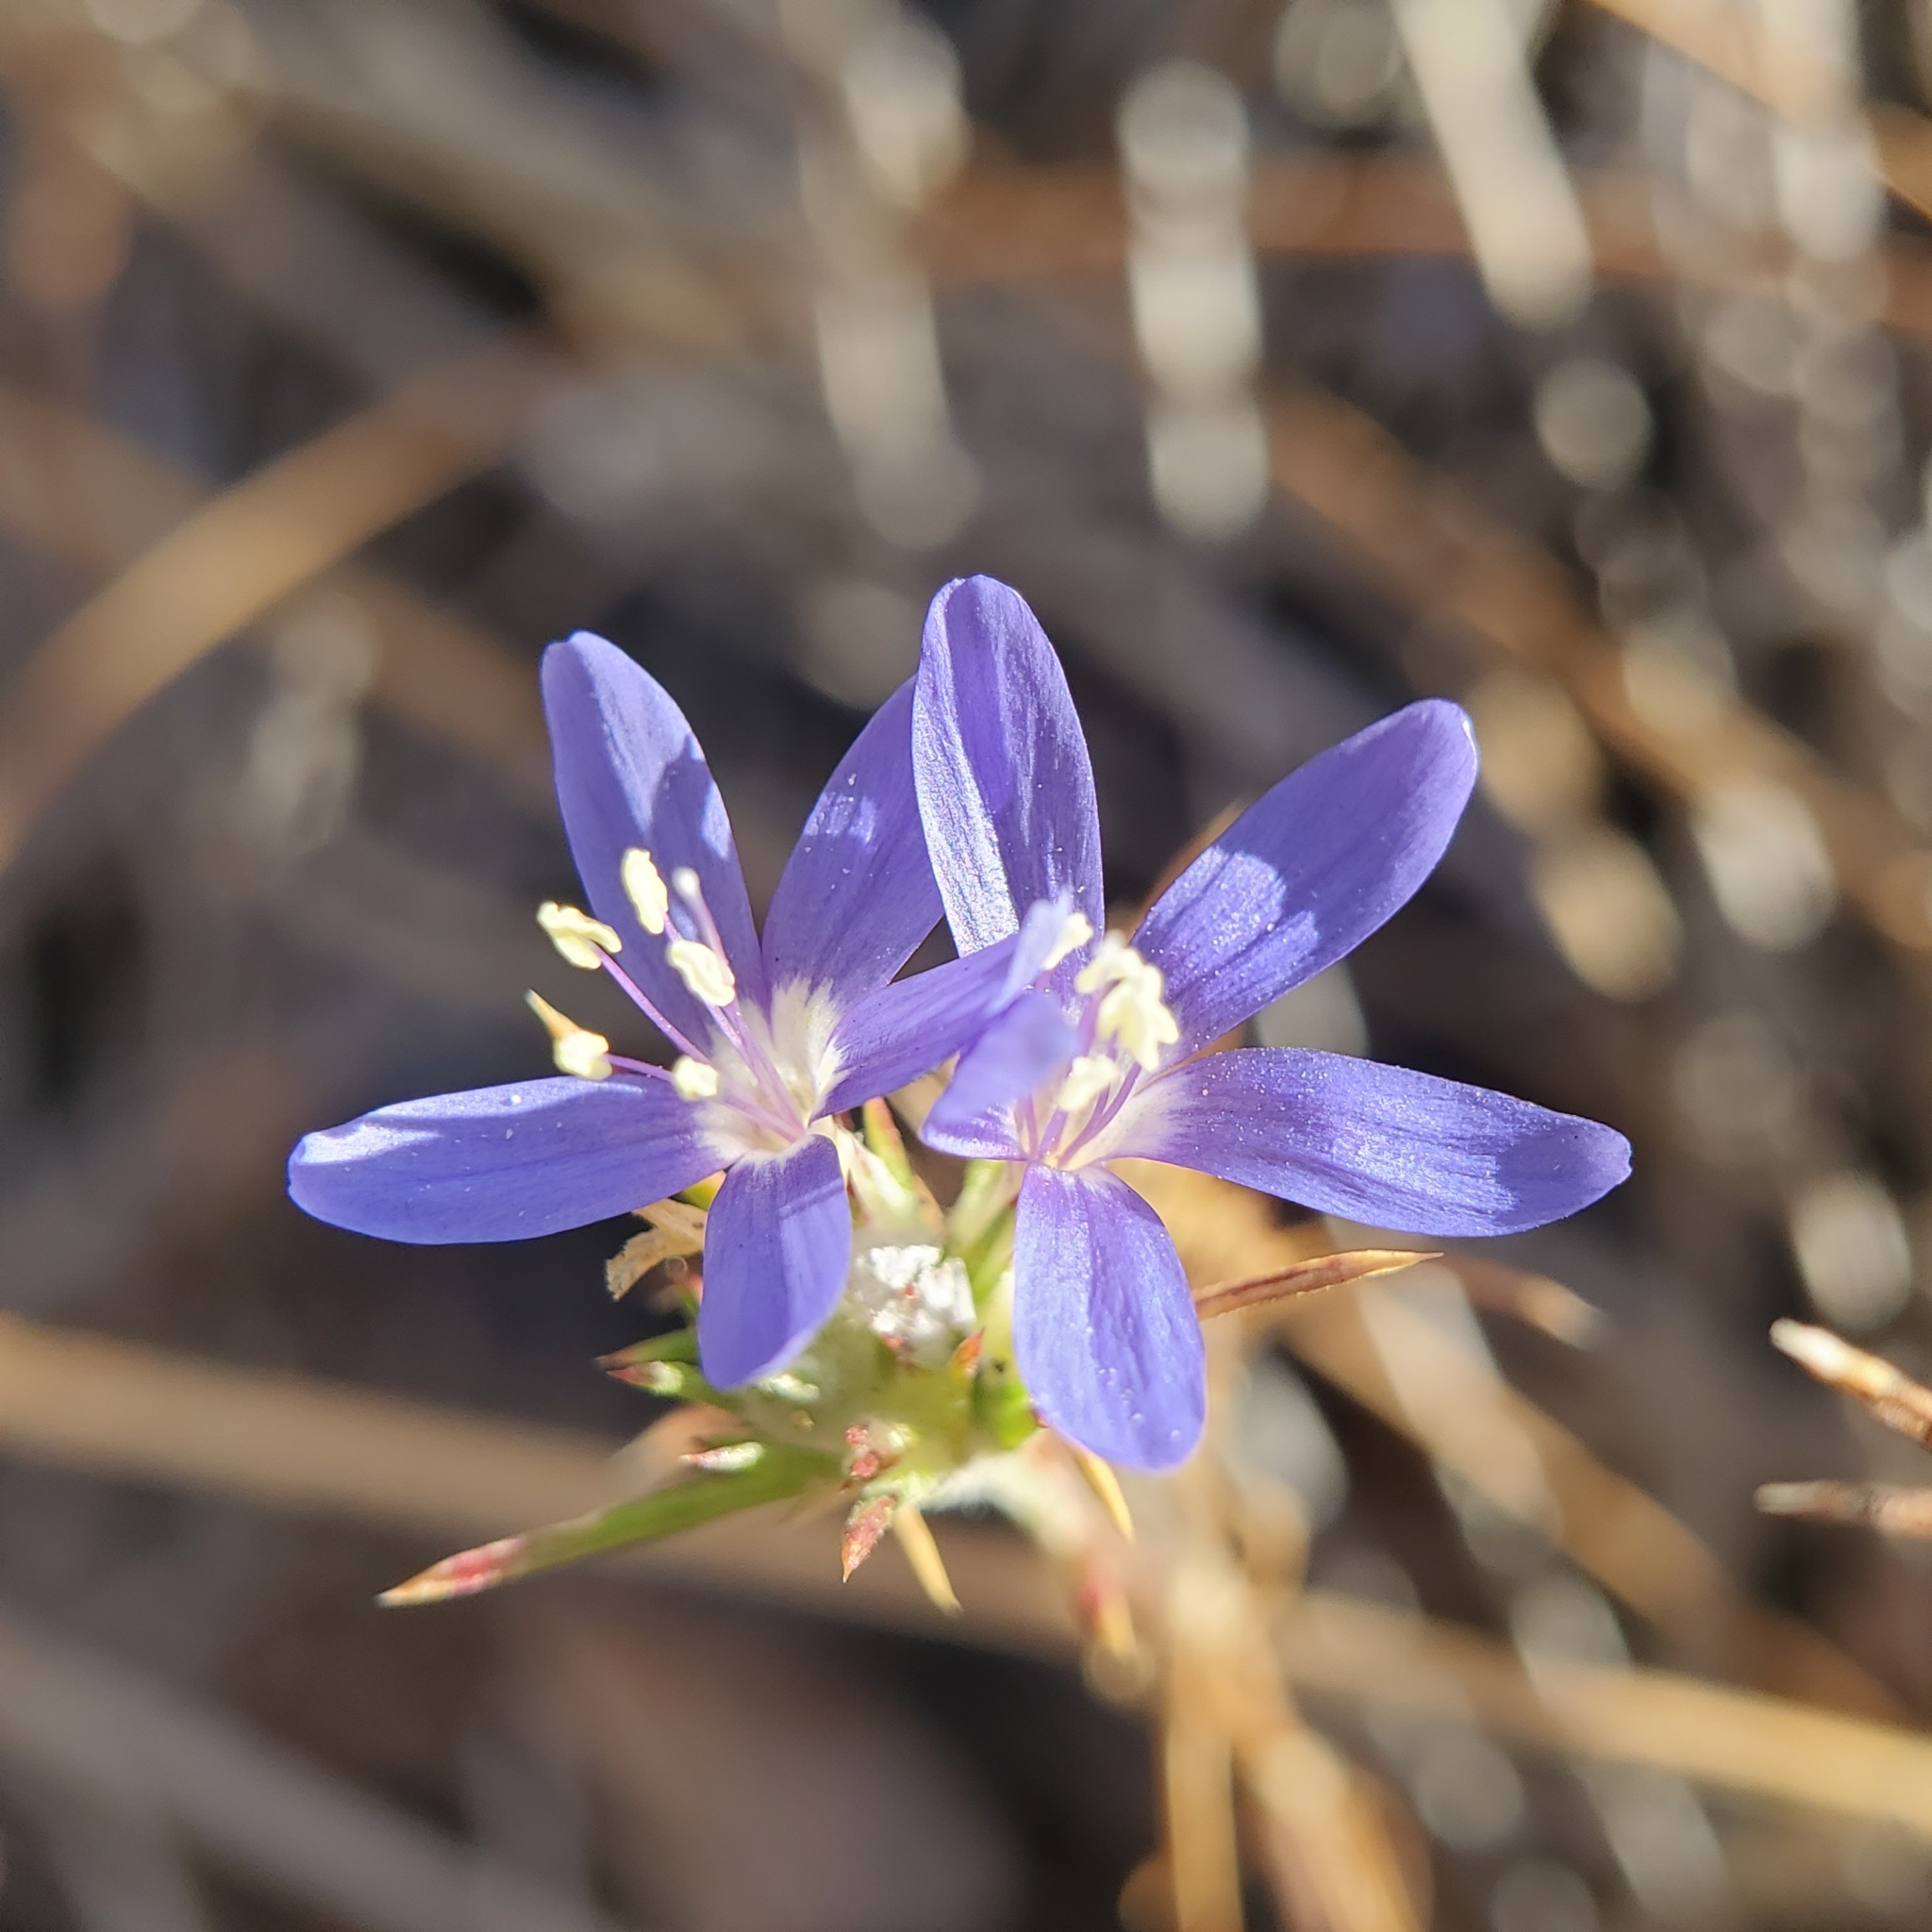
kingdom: Plantae
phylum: Tracheophyta
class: Magnoliopsida
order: Ericales
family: Polemoniaceae
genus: Eriastrum
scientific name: Eriastrum sapphirinum
